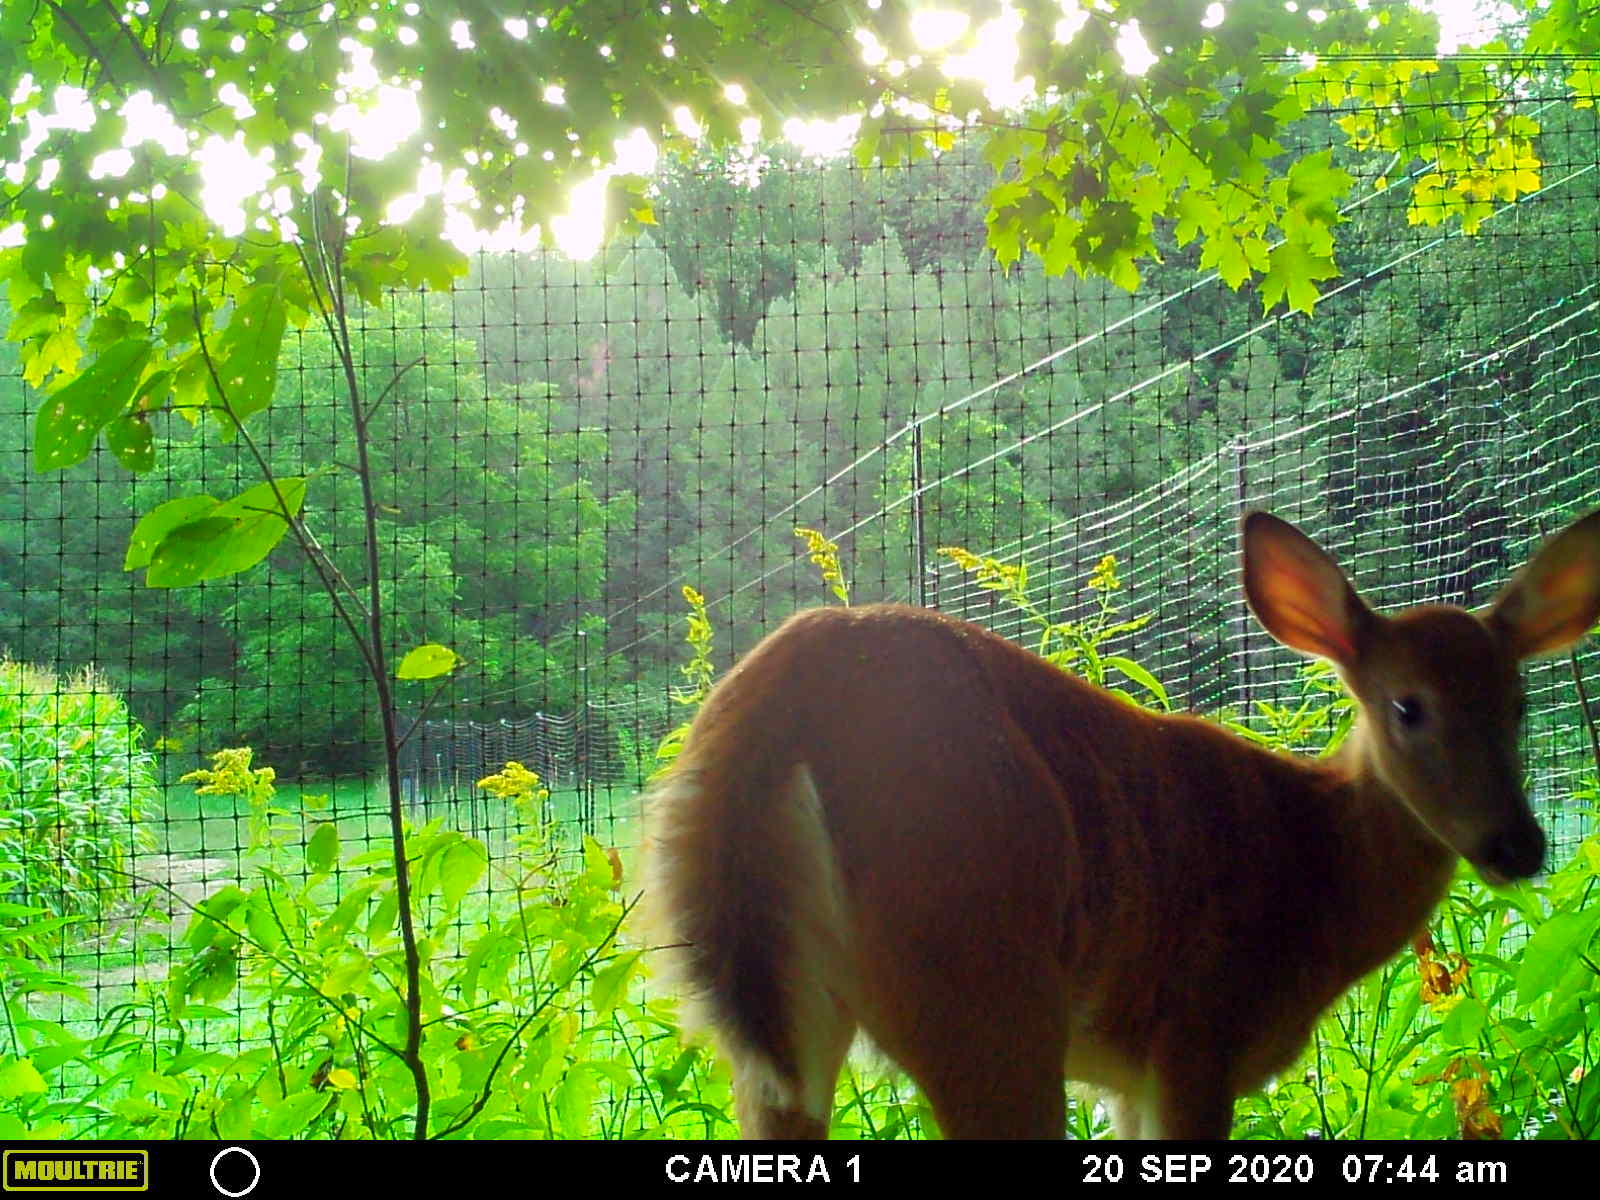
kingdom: Animalia
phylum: Chordata
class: Mammalia
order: Artiodactyla
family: Cervidae
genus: Odocoileus
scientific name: Odocoileus virginianus
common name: White-tailed deer
